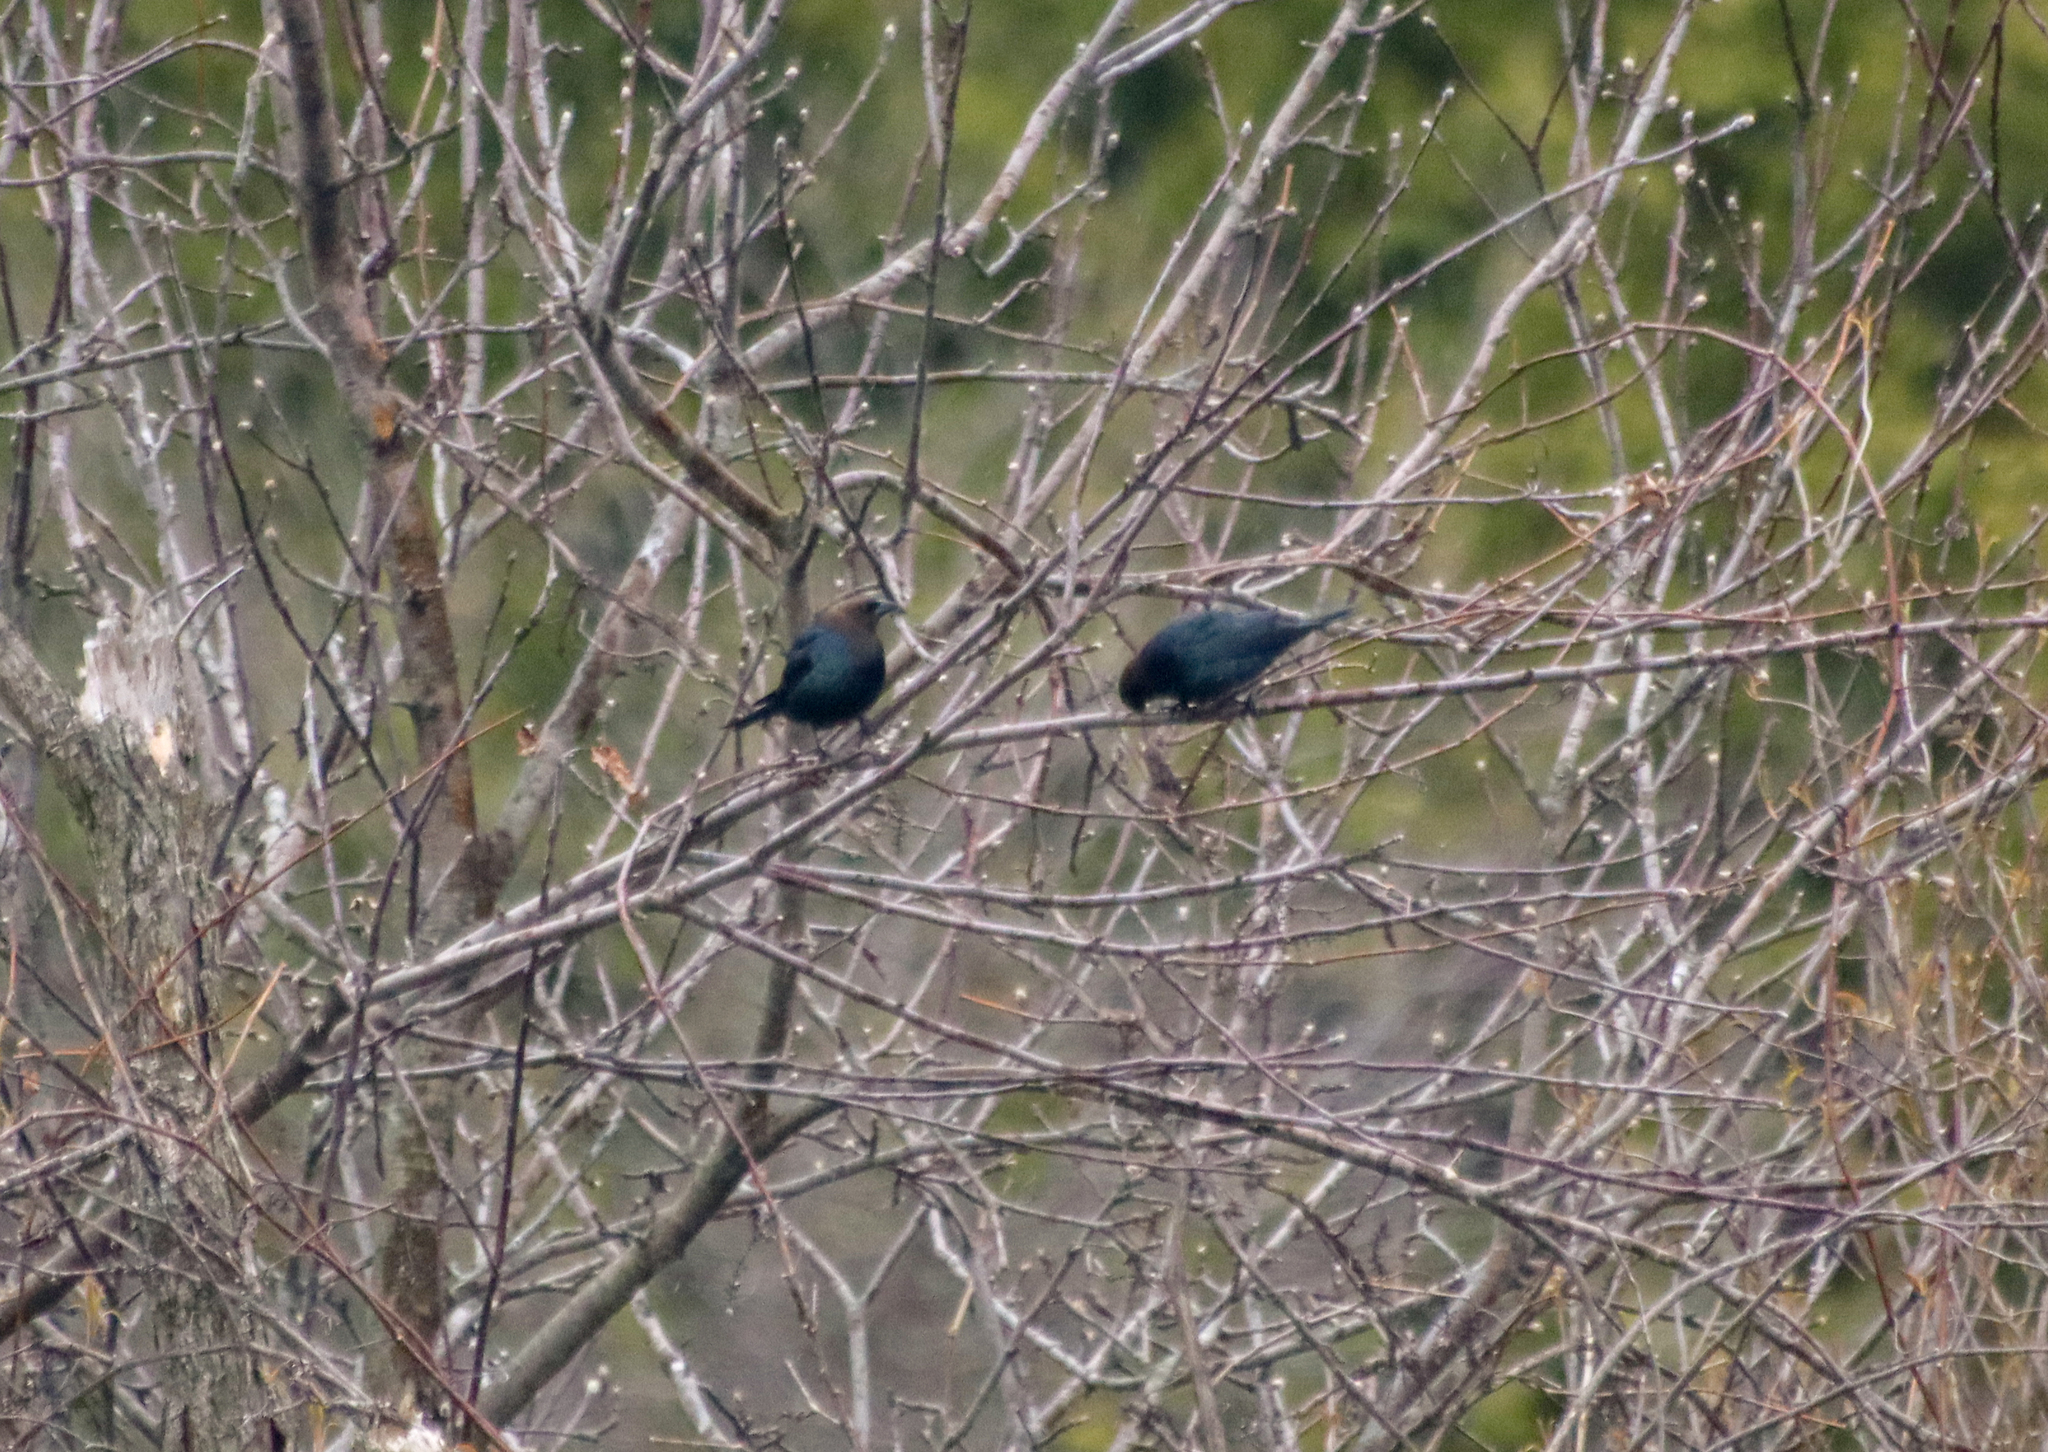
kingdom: Animalia
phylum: Chordata
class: Aves
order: Passeriformes
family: Icteridae
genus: Molothrus
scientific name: Molothrus ater
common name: Brown-headed cowbird
